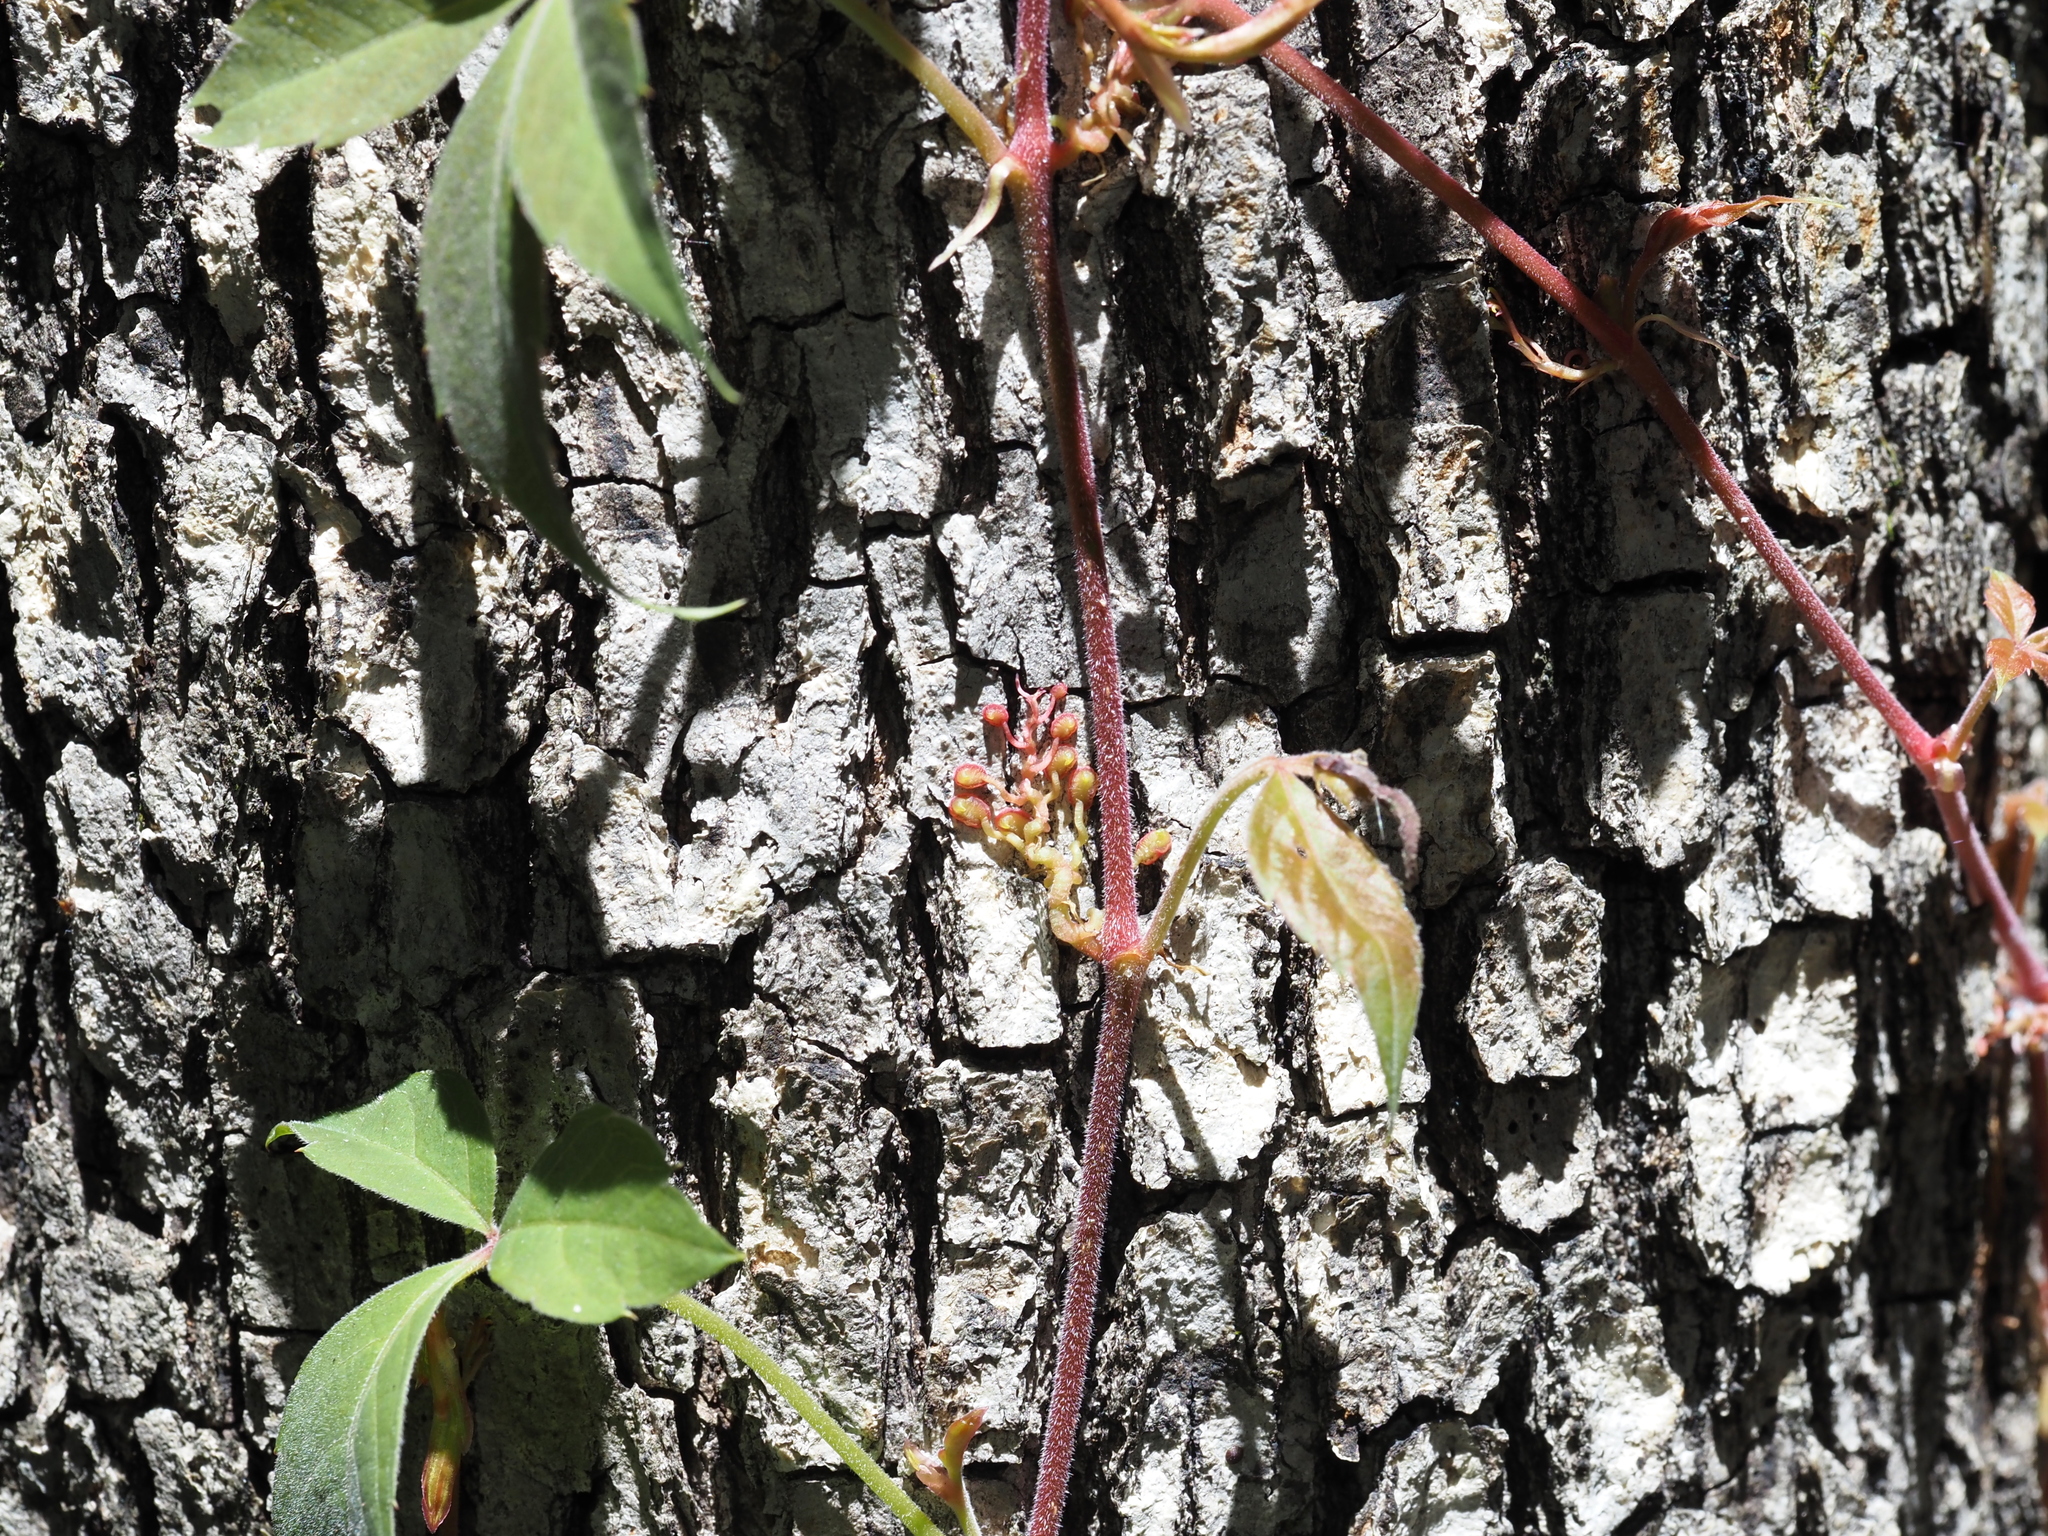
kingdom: Plantae
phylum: Tracheophyta
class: Magnoliopsida
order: Vitales
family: Vitaceae
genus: Parthenocissus
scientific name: Parthenocissus quinquefolia
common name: Virginia-creeper
